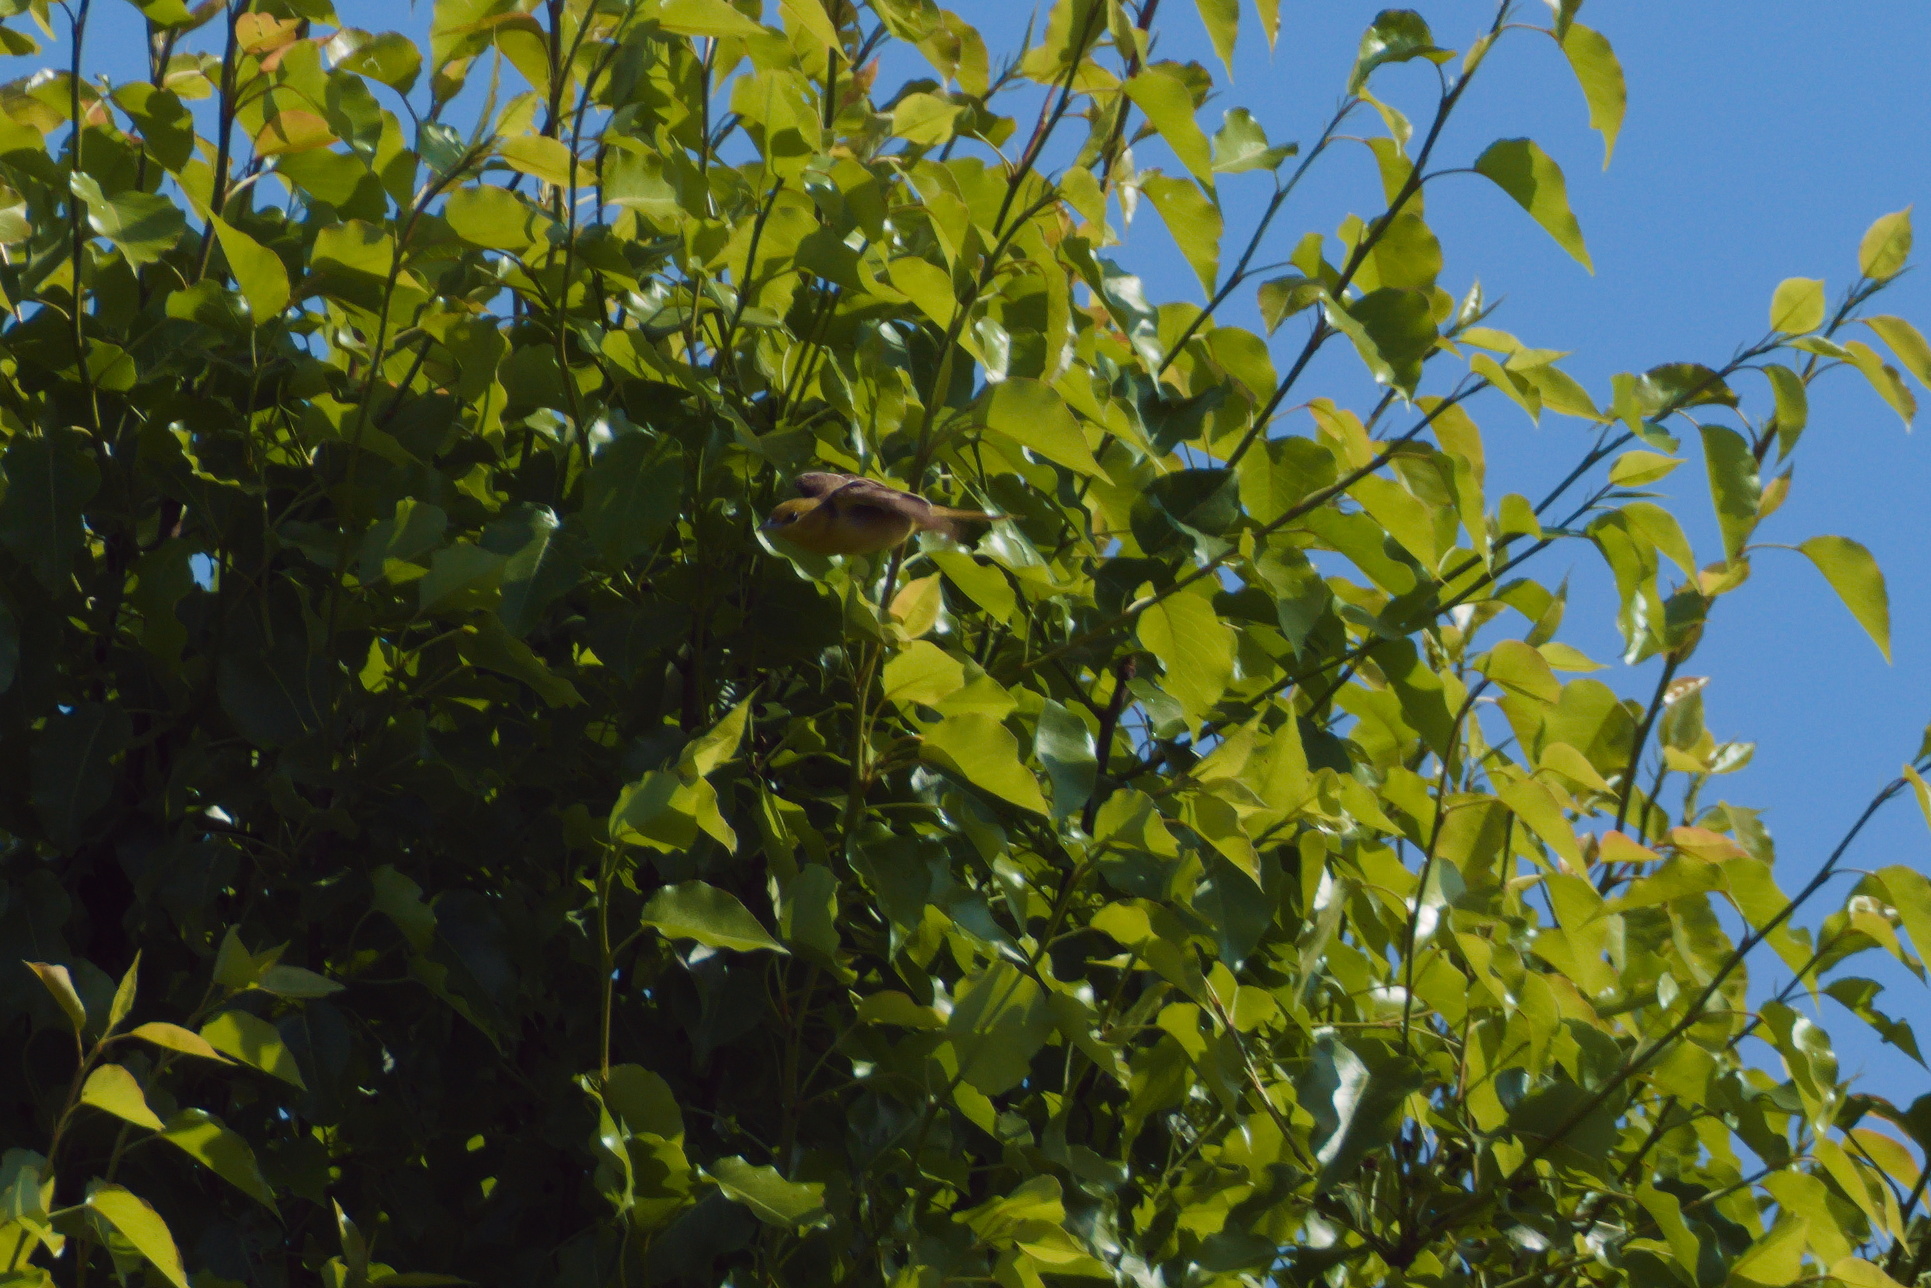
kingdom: Animalia
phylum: Chordata
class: Aves
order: Passeriformes
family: Icteridae
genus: Icterus
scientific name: Icterus spurius
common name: Orchard oriole
